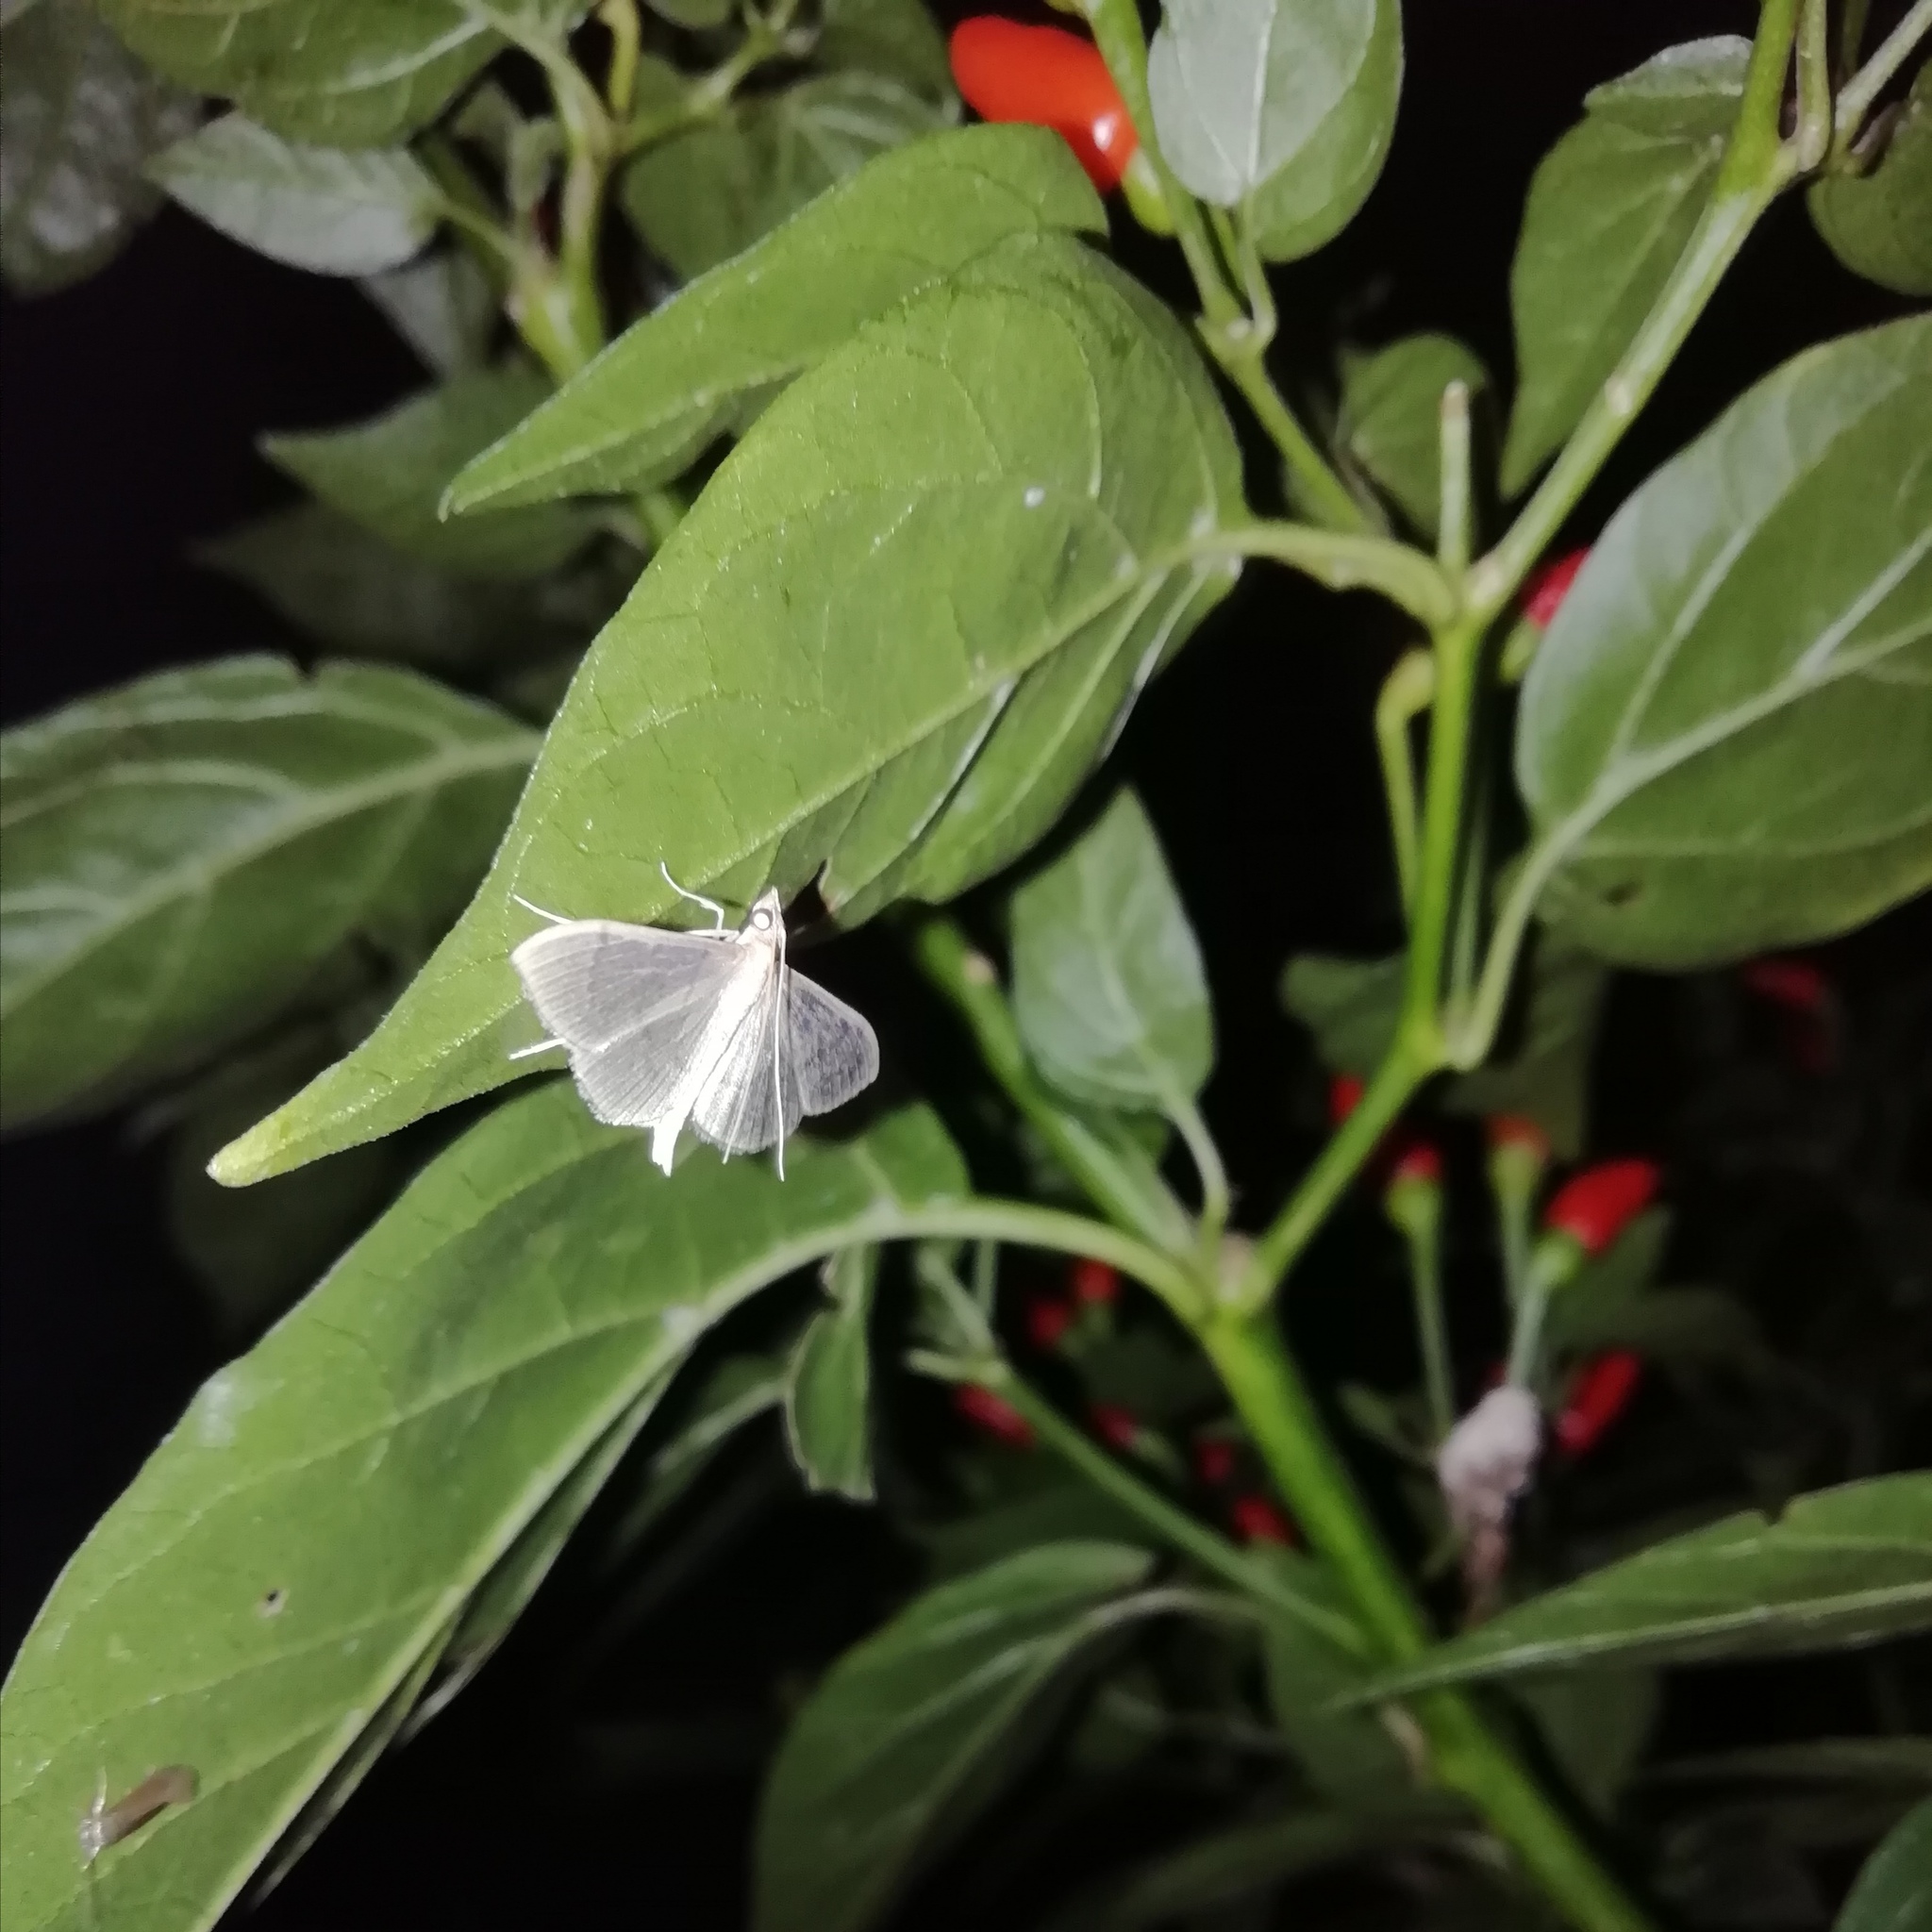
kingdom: Animalia
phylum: Arthropoda
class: Insecta
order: Lepidoptera
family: Crambidae
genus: Lamprophaia
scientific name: Lamprophaia ablactalis
